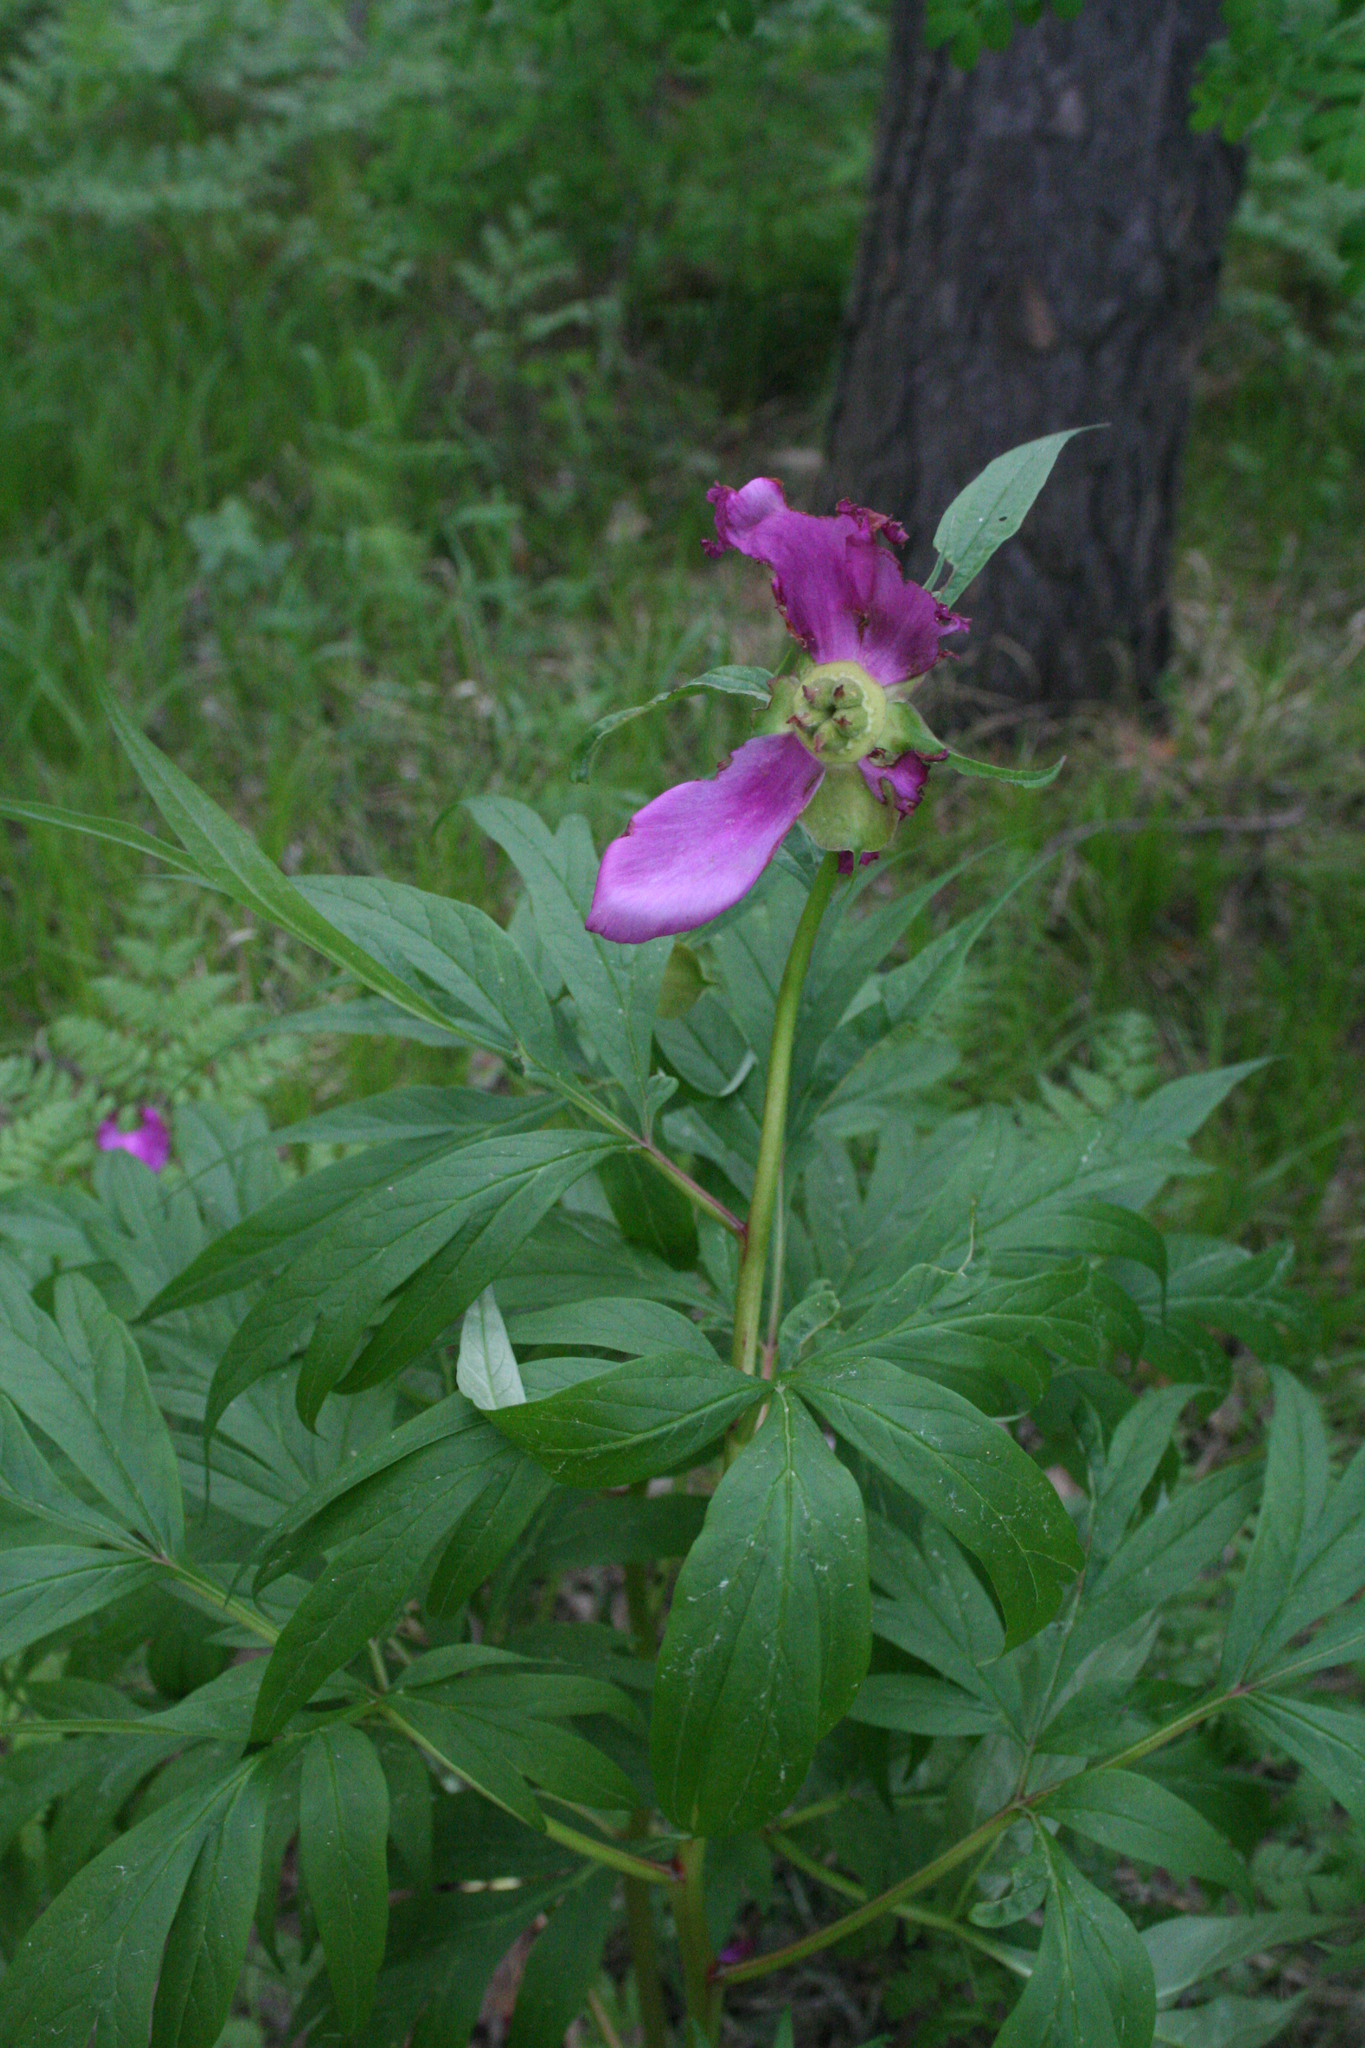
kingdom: Plantae
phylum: Tracheophyta
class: Magnoliopsida
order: Saxifragales
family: Paeoniaceae
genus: Paeonia
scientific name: Paeonia anomala
